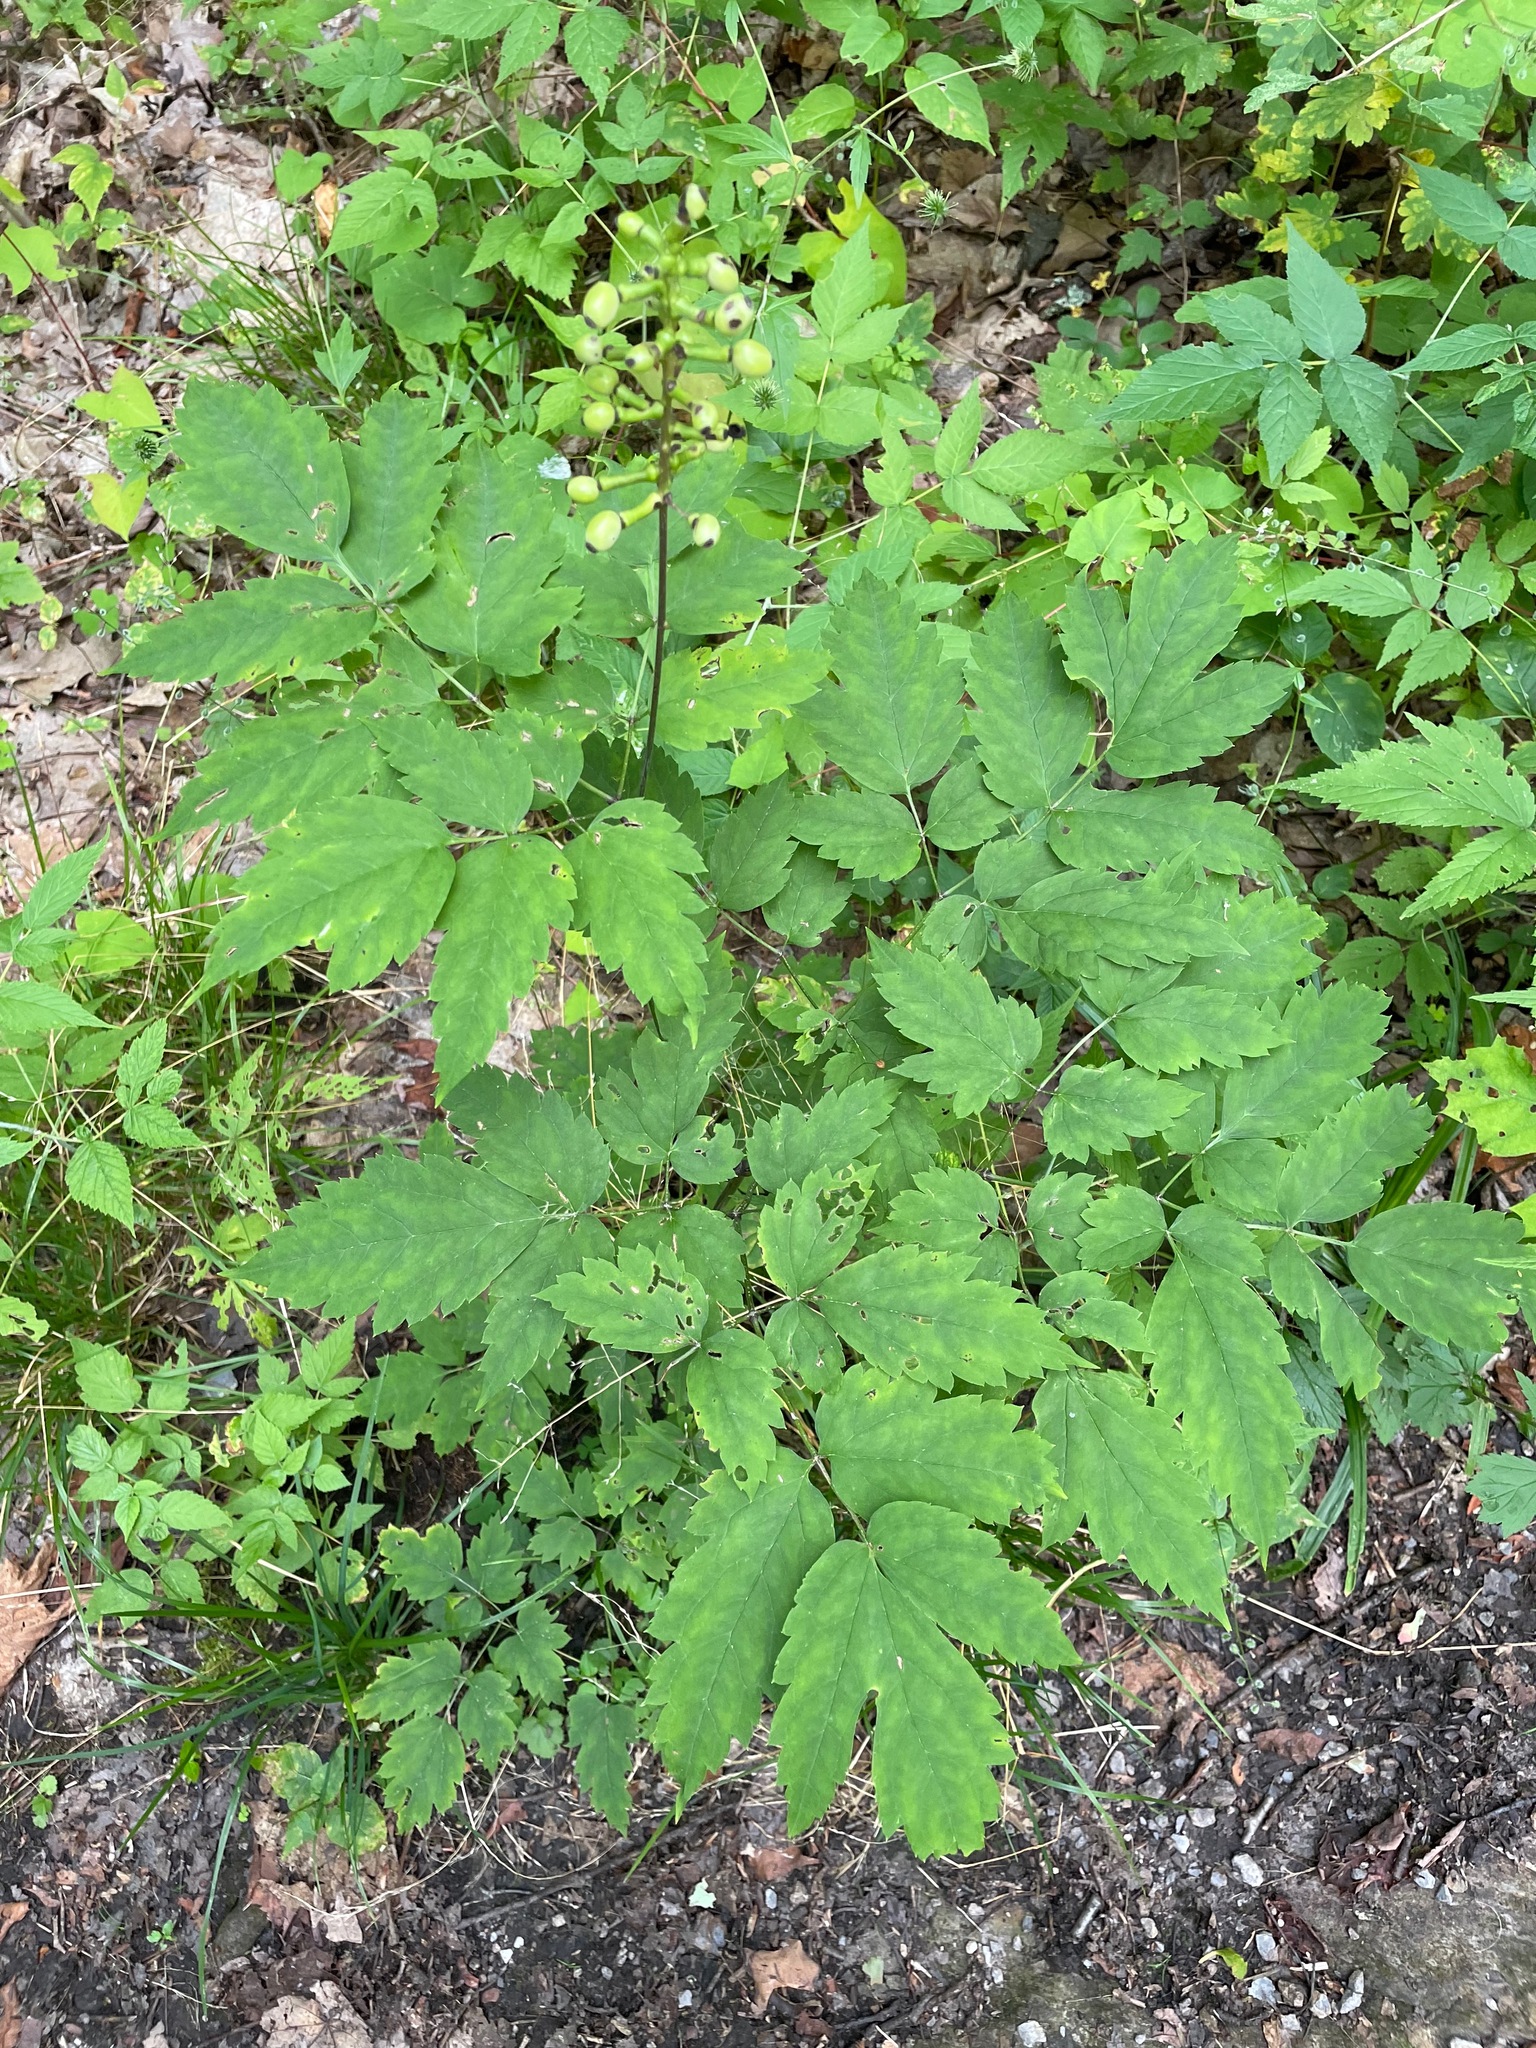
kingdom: Plantae
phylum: Tracheophyta
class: Magnoliopsida
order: Ranunculales
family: Ranunculaceae
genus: Actaea
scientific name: Actaea pachypoda
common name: Doll's-eyes
